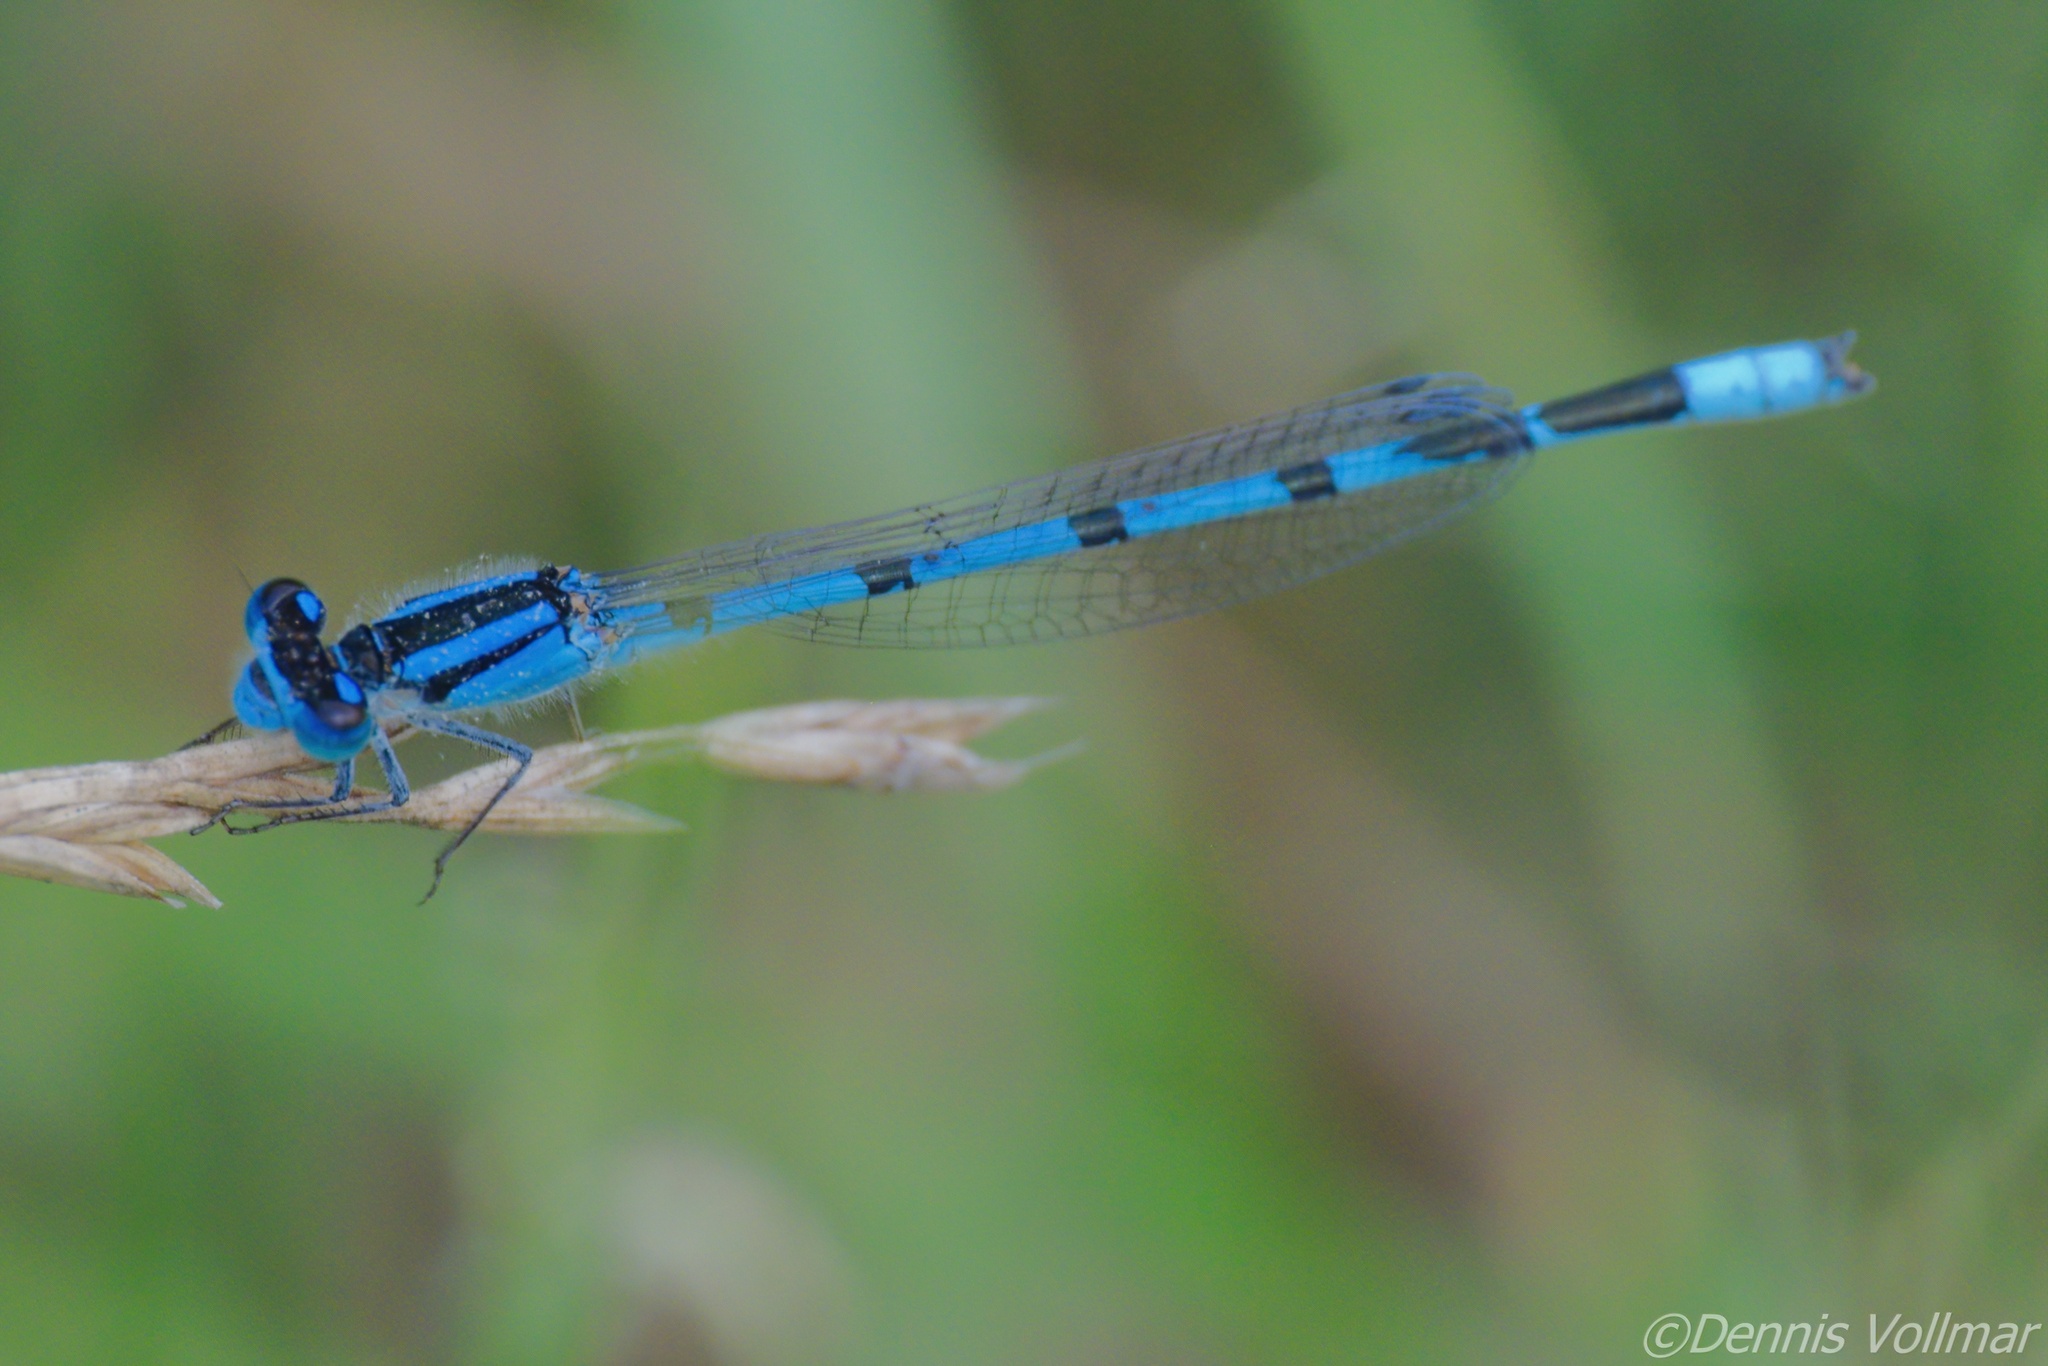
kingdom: Animalia
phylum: Arthropoda
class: Insecta
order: Odonata
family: Coenagrionidae
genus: Enallagma
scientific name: Enallagma civile
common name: Damselfly
